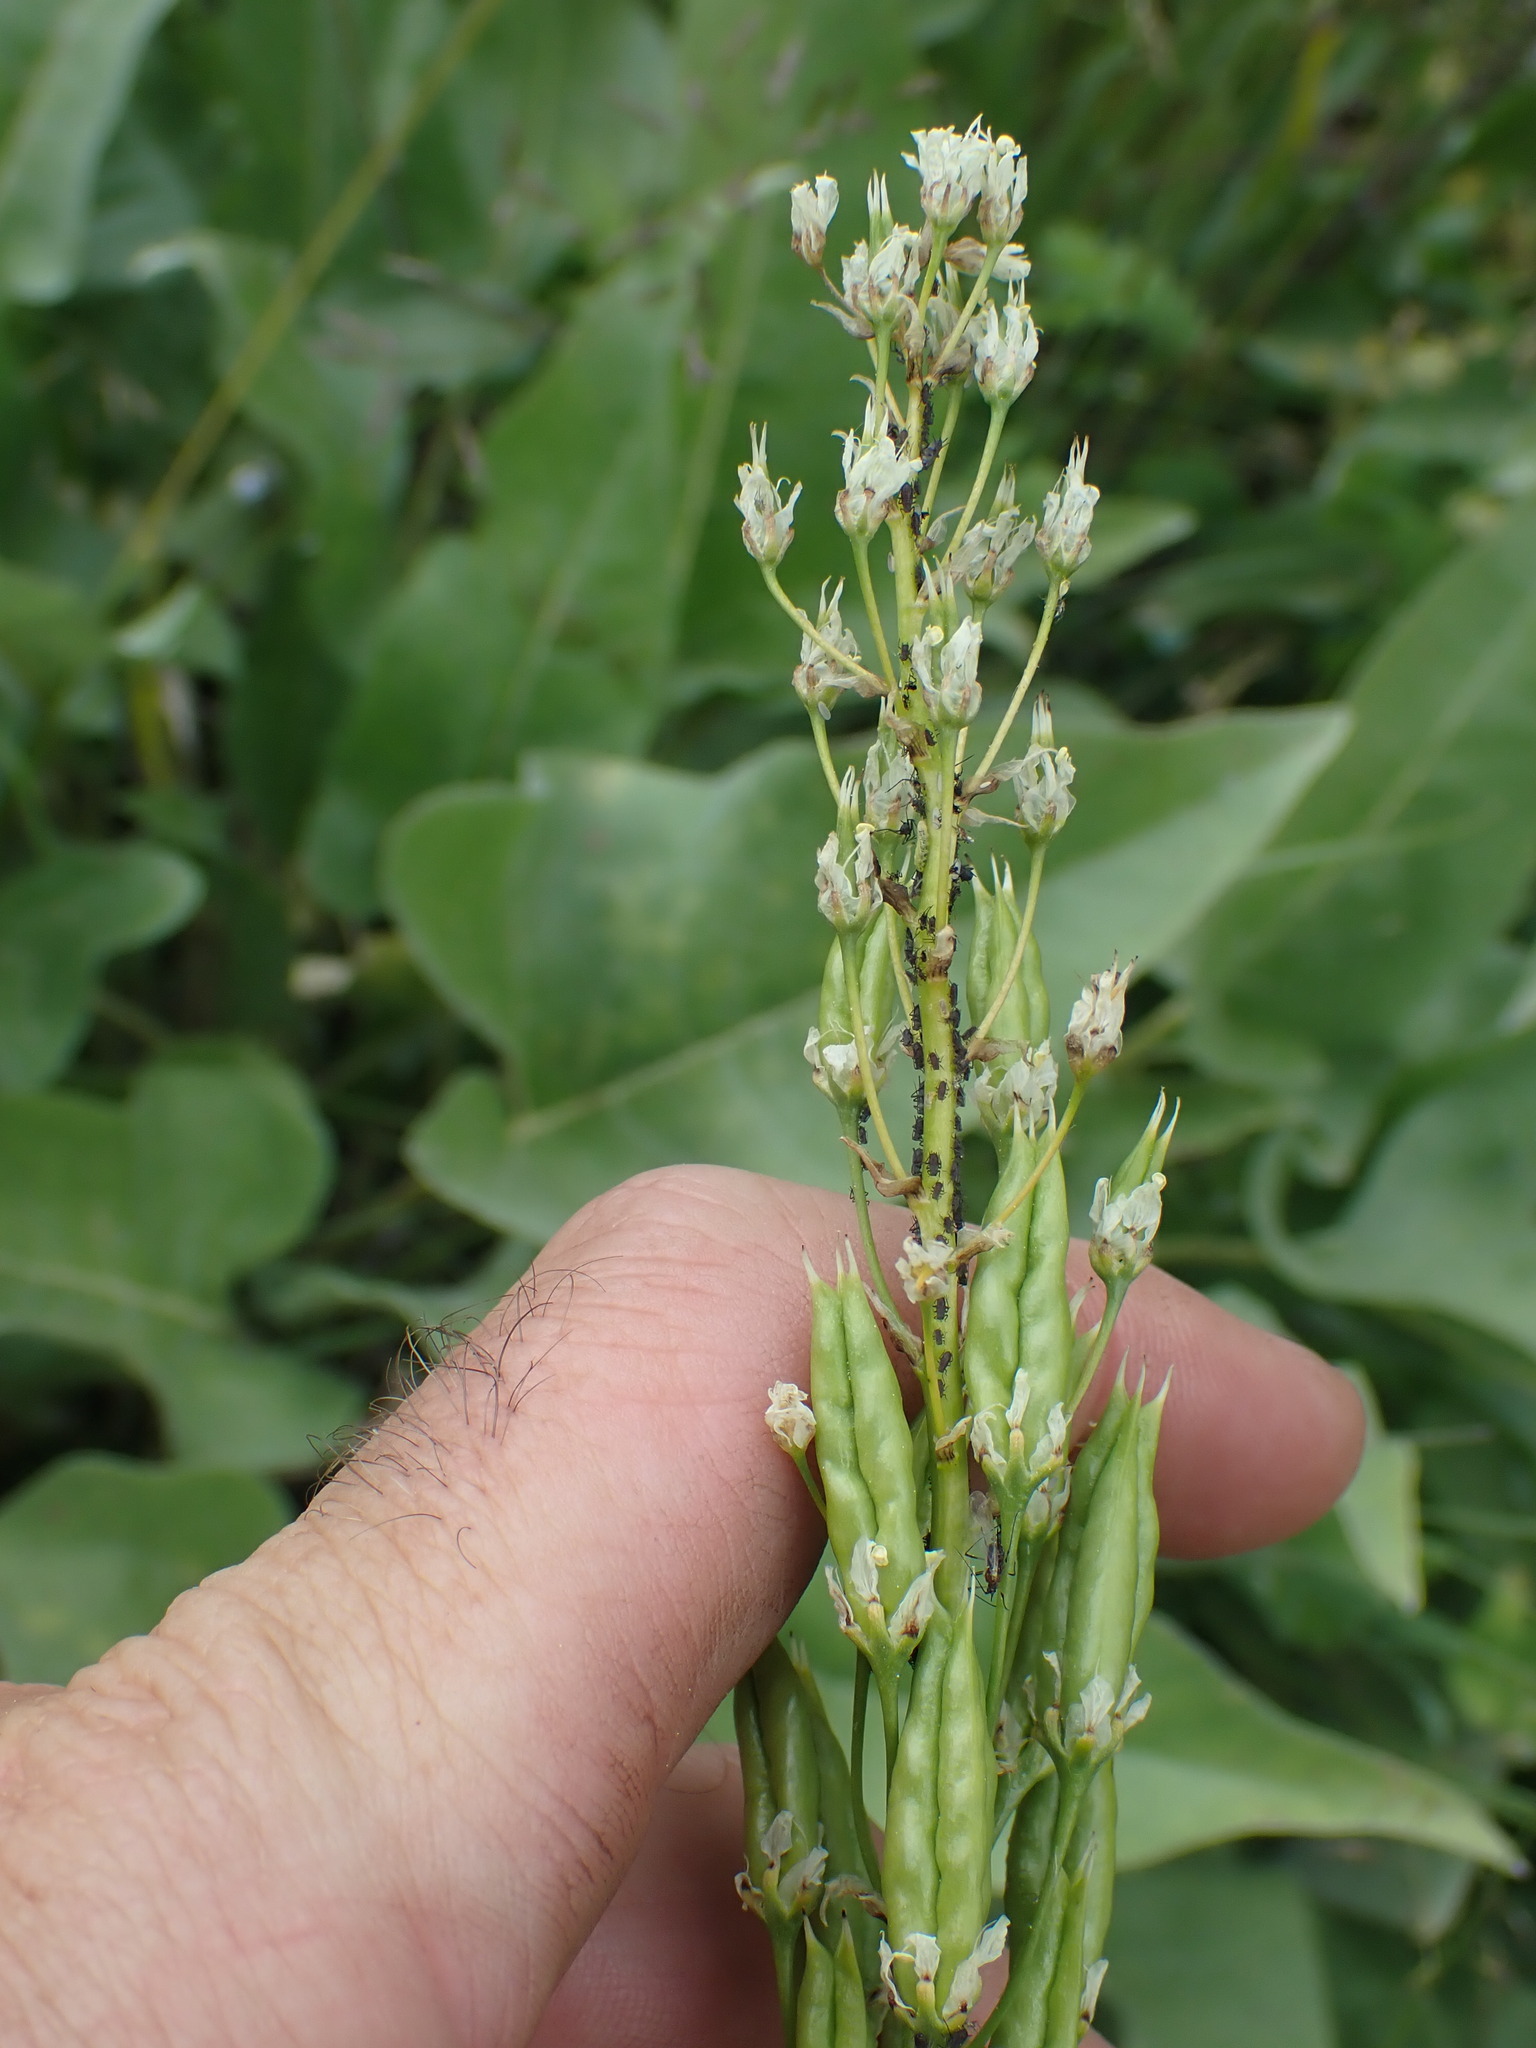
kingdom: Plantae
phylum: Tracheophyta
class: Liliopsida
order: Liliales
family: Melanthiaceae
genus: Toxicoscordion
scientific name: Toxicoscordion venenosum
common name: Meadow death camas
